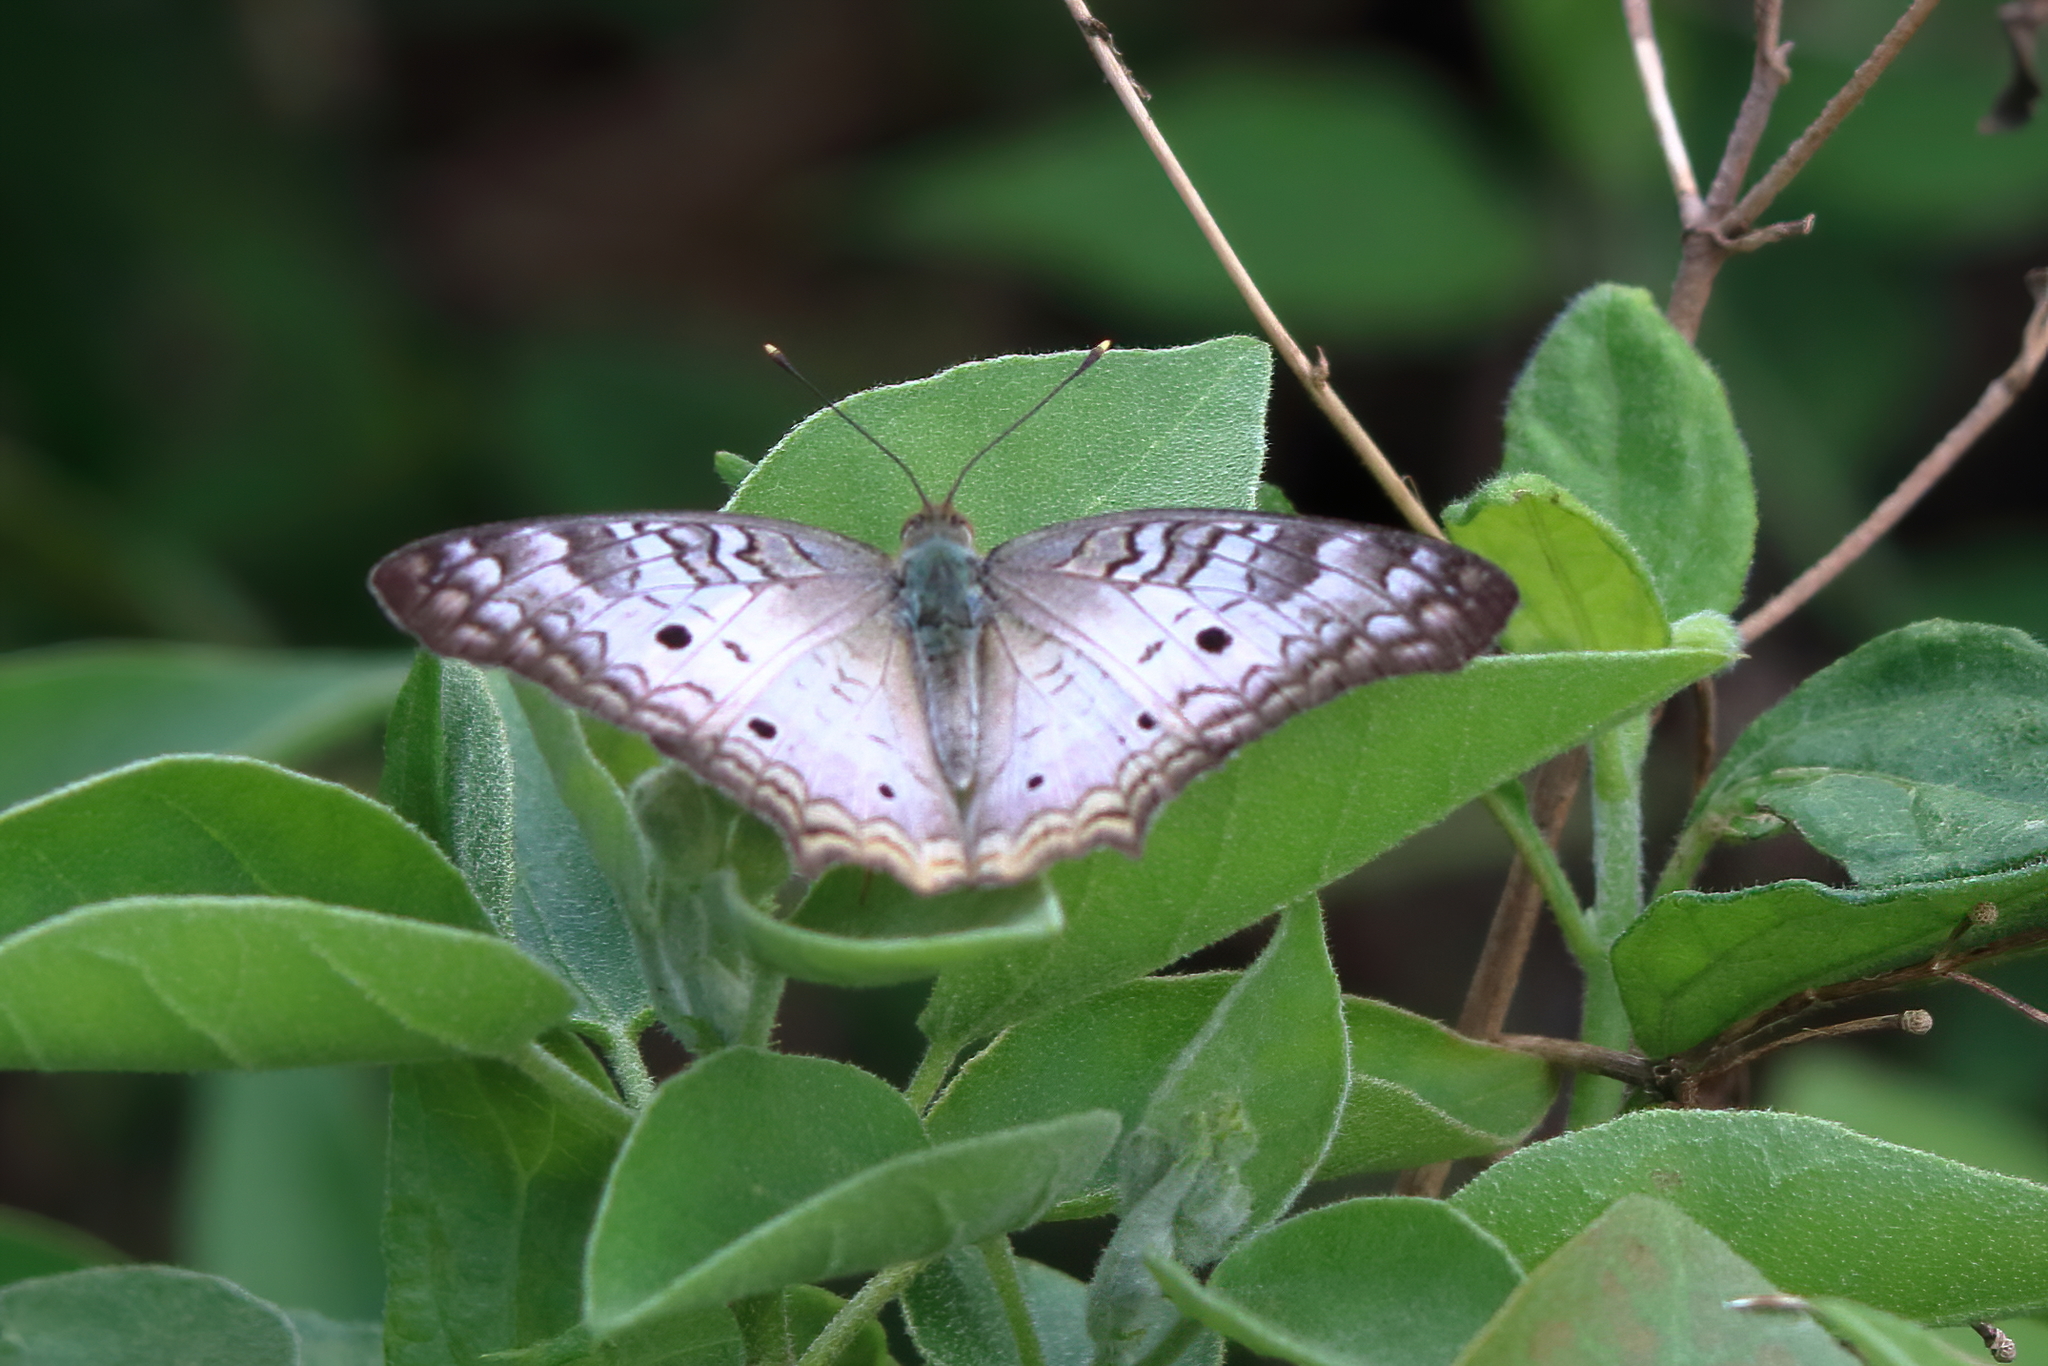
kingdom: Animalia
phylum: Arthropoda
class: Insecta
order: Lepidoptera
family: Nymphalidae
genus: Anartia
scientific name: Anartia jatrophae
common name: White peacock
